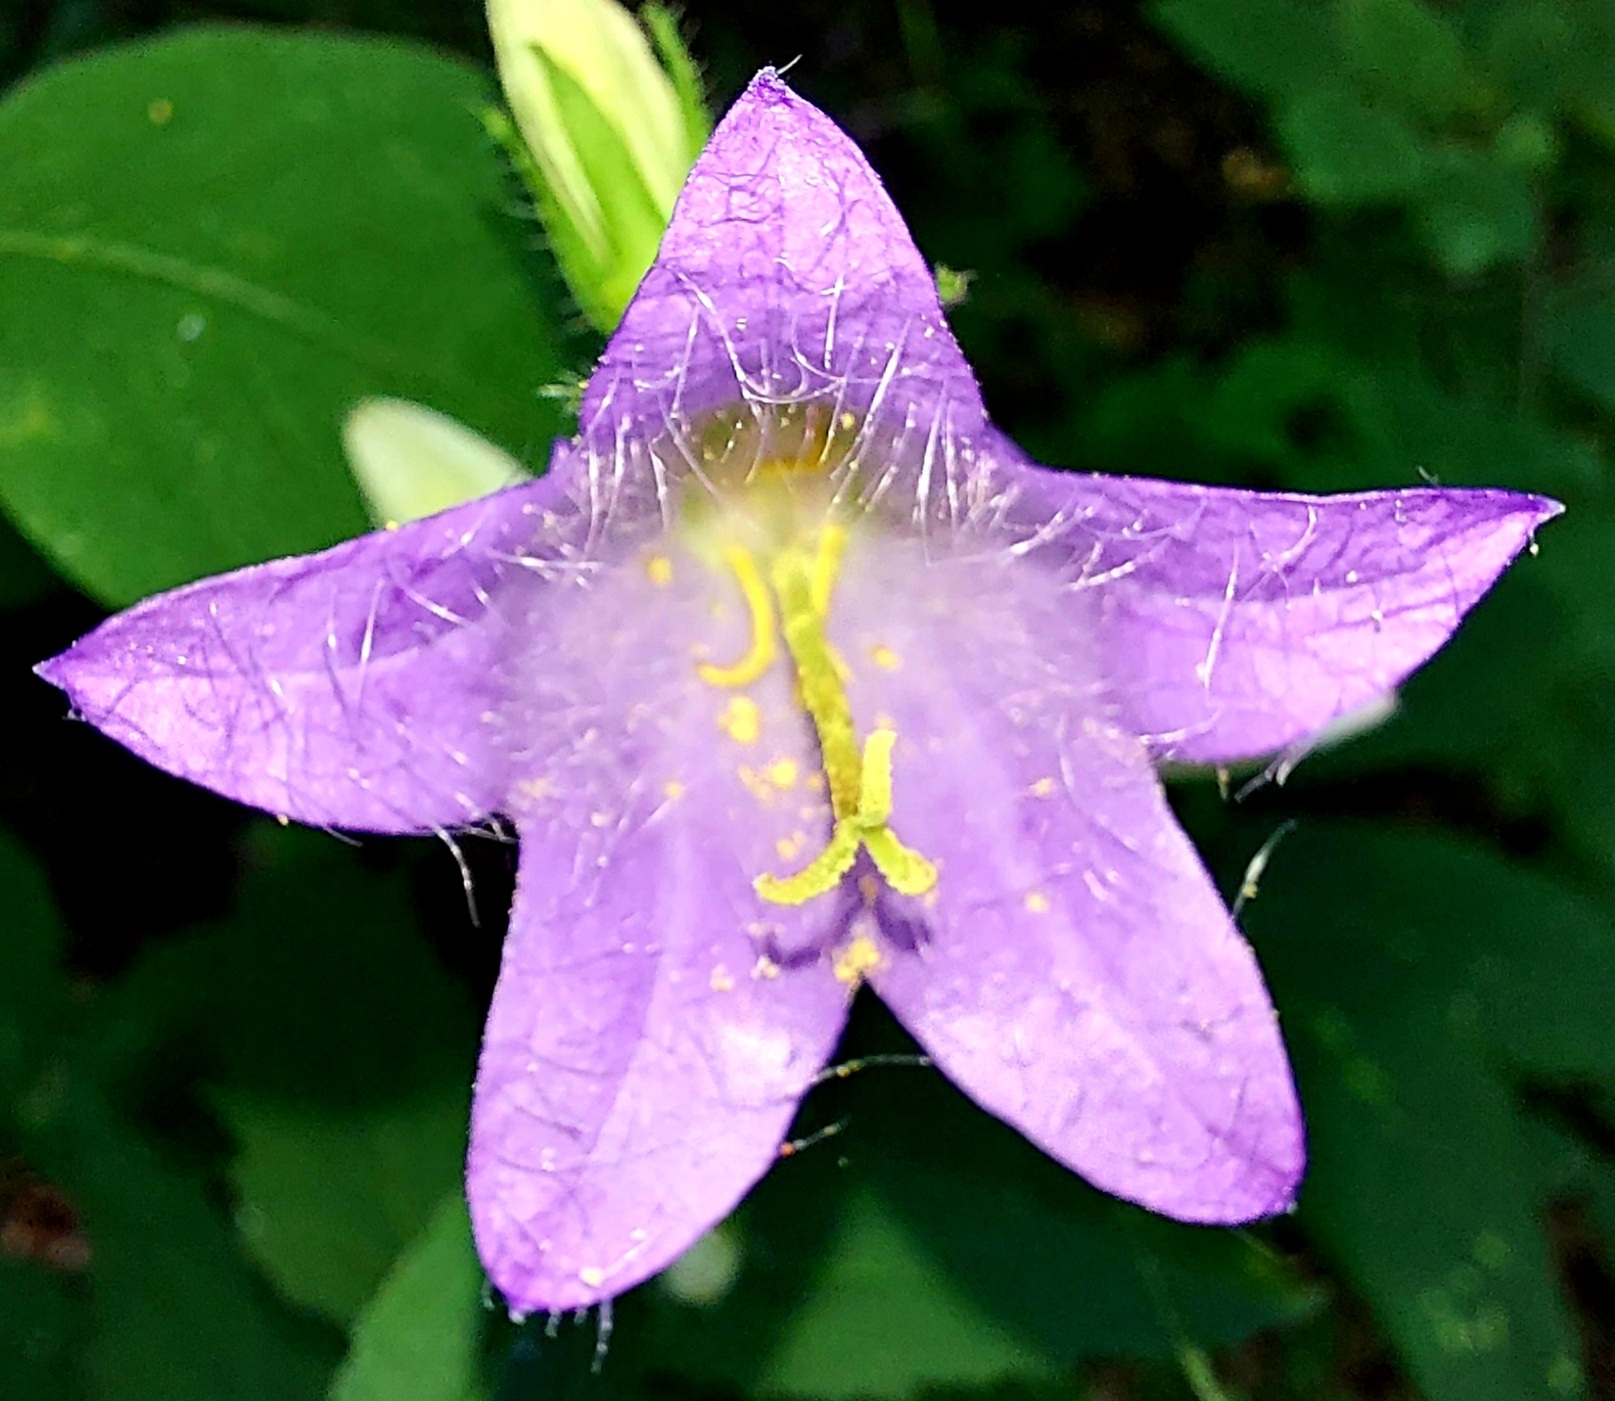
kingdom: Plantae
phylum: Tracheophyta
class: Magnoliopsida
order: Asterales
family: Campanulaceae
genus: Campanula
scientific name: Campanula trachelium
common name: Nettle-leaved bellflower
